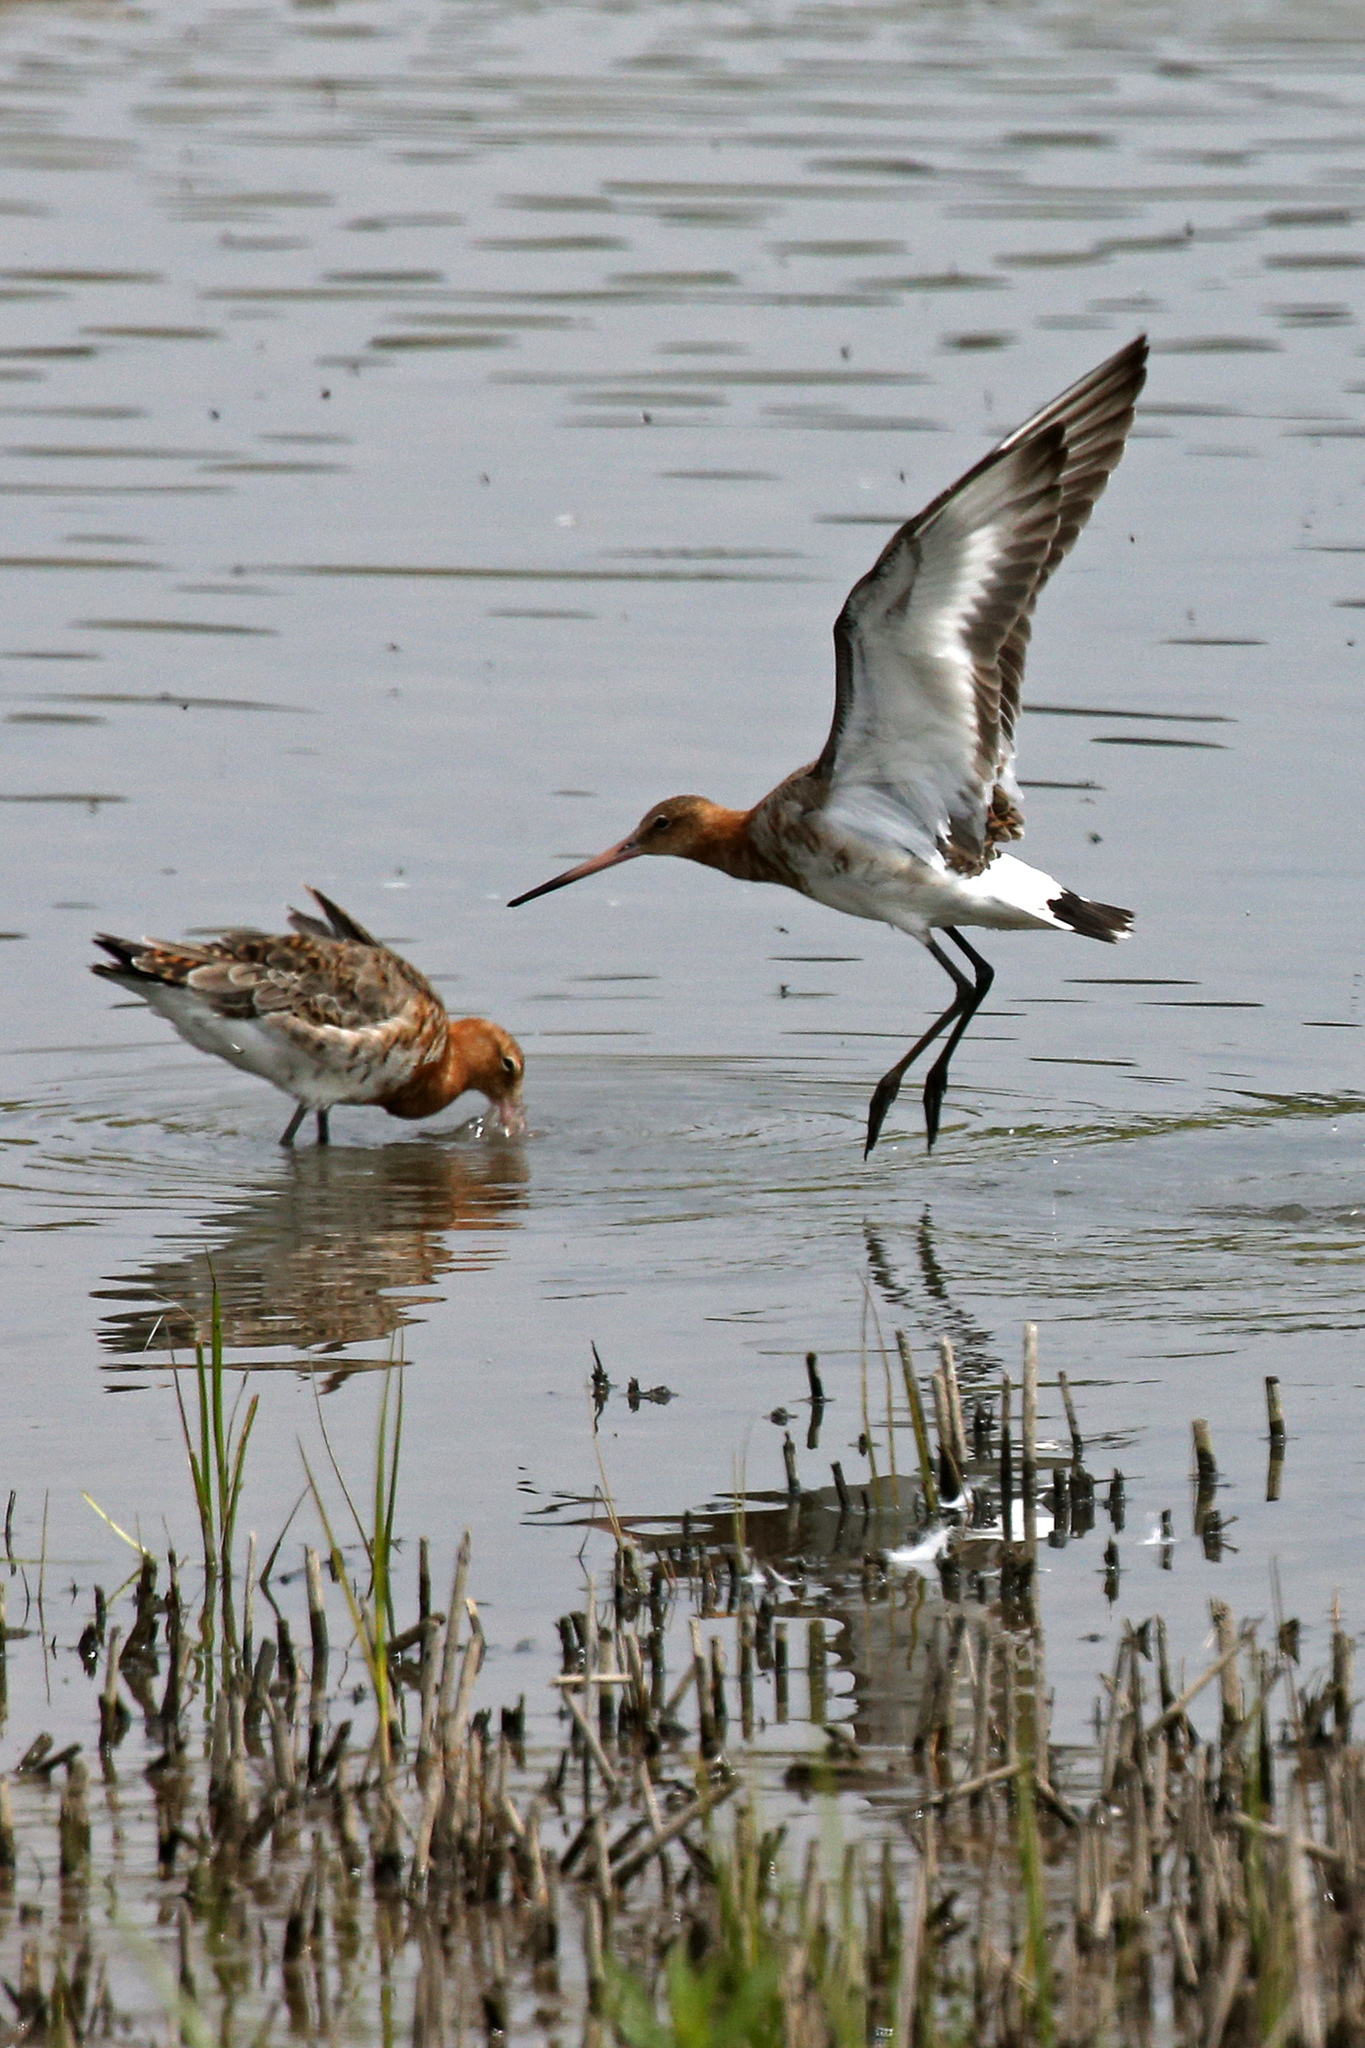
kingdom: Animalia
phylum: Chordata
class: Aves
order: Charadriiformes
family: Scolopacidae
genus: Limosa
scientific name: Limosa limosa
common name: Black-tailed godwit
